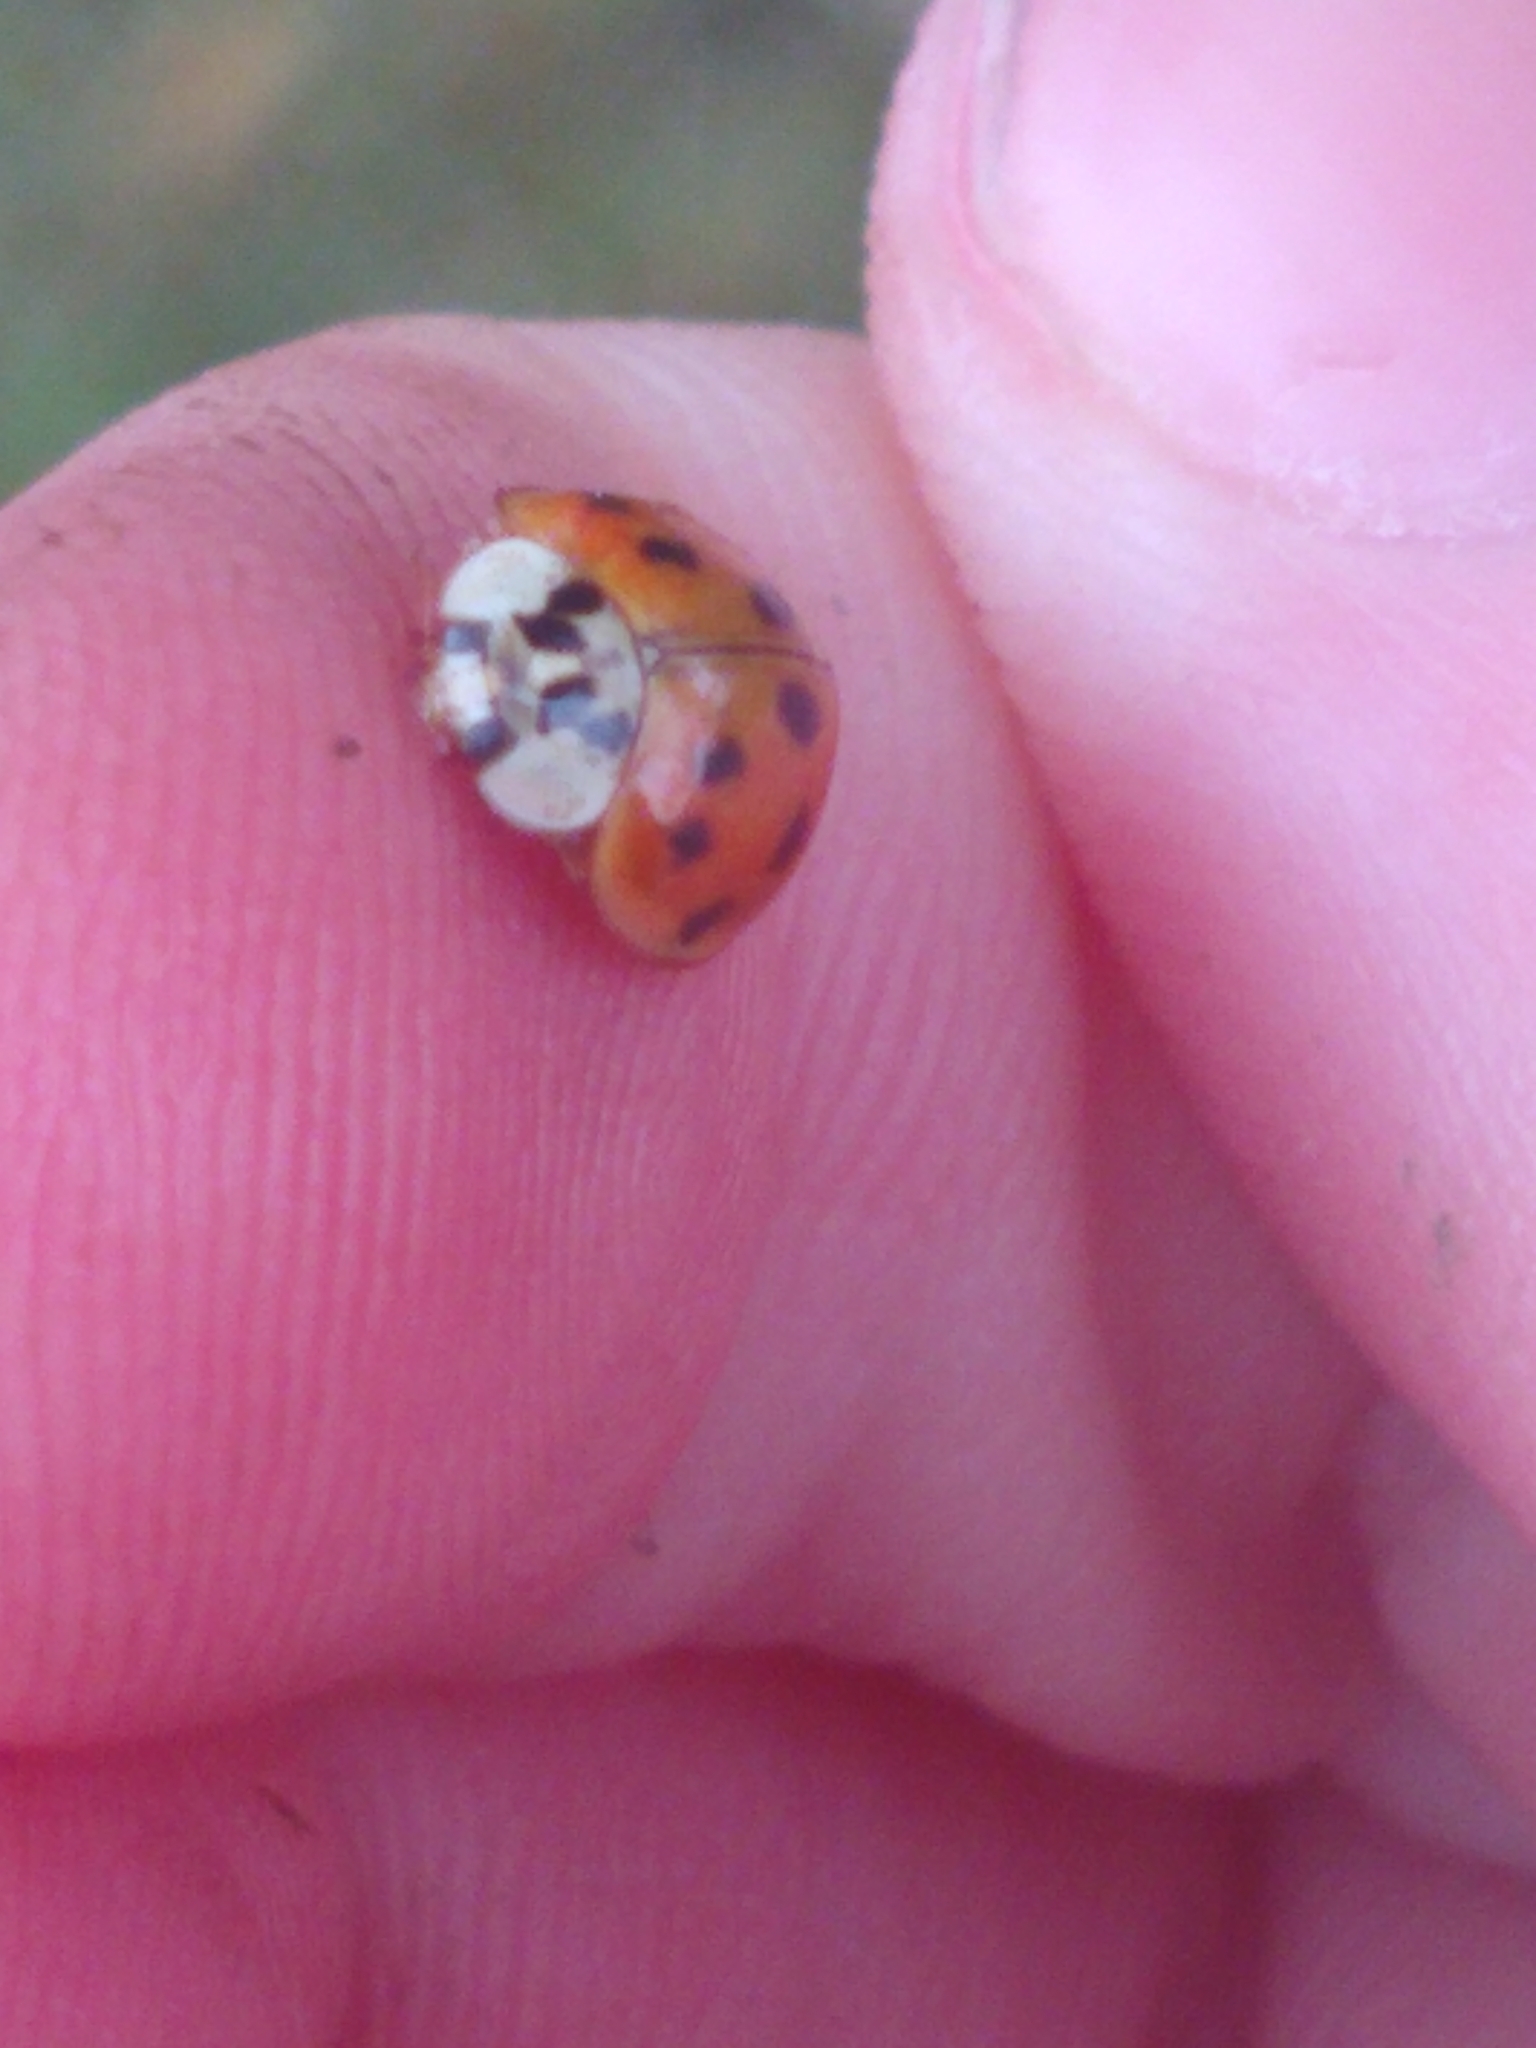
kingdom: Animalia
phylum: Arthropoda
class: Insecta
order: Coleoptera
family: Coccinellidae
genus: Harmonia
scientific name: Harmonia axyridis
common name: Harlequin ladybird
